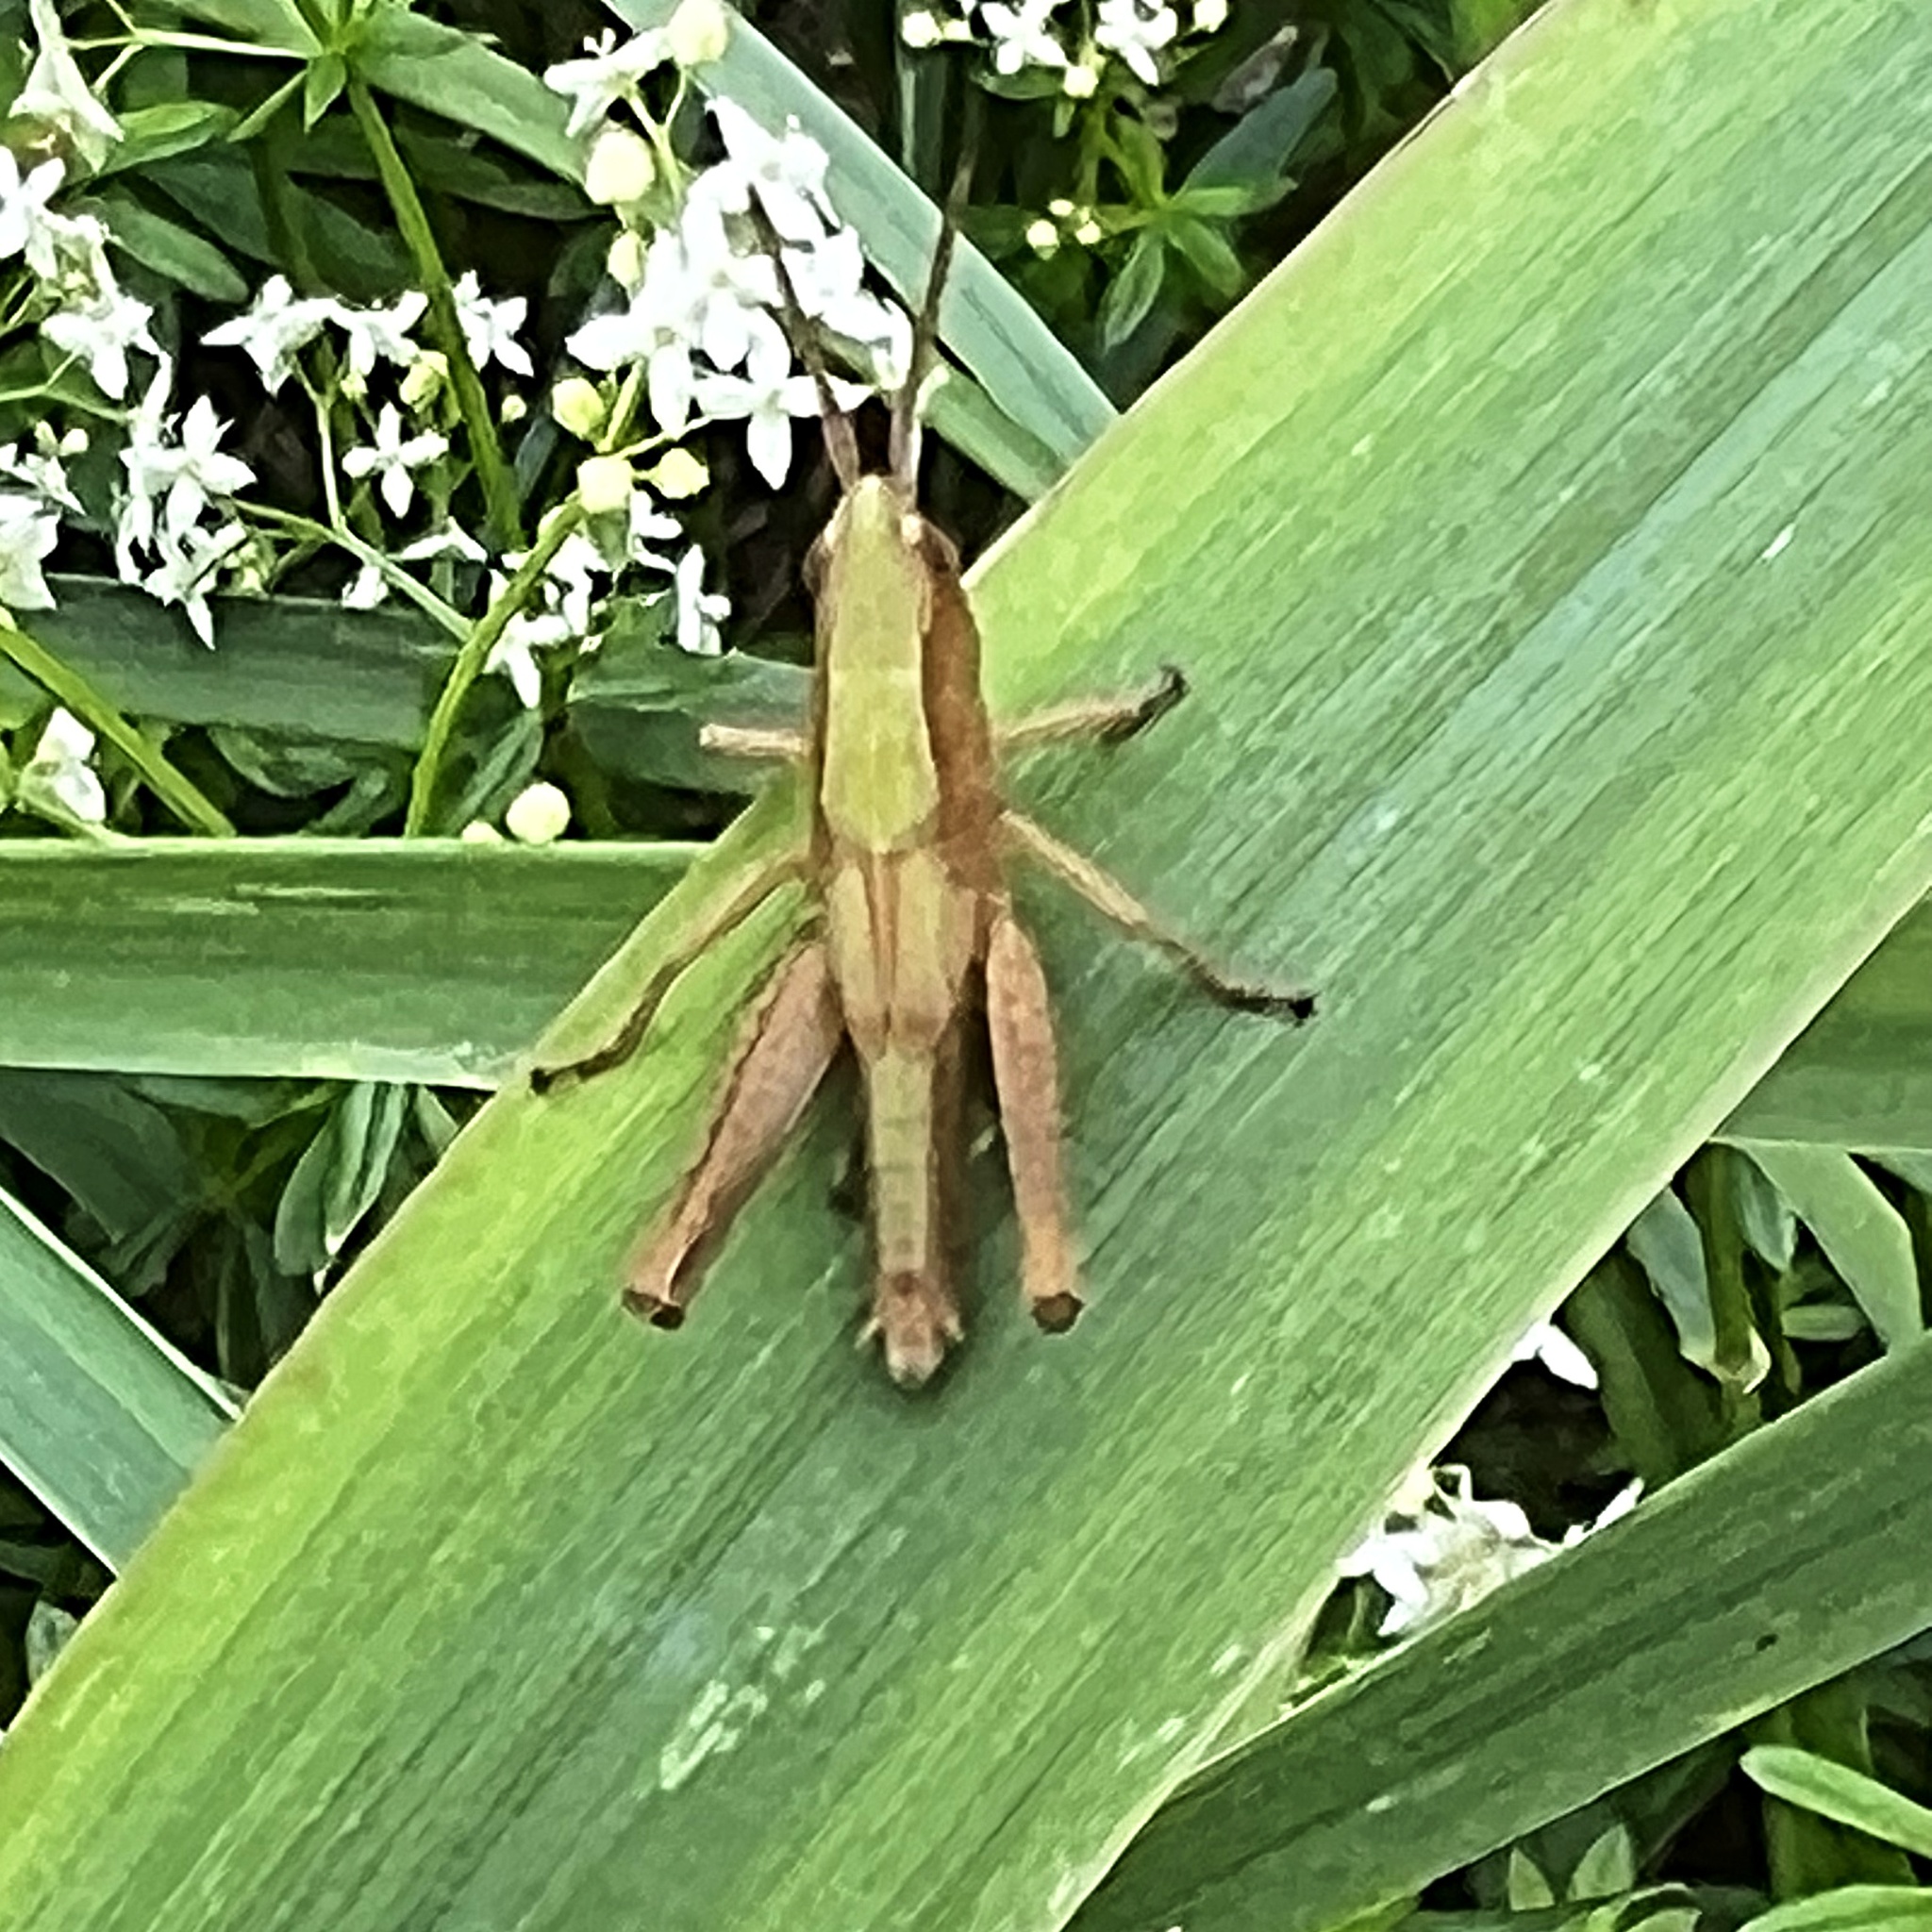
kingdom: Animalia
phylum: Arthropoda
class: Insecta
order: Orthoptera
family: Acrididae
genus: Chorthippus
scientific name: Chorthippus dorsatus
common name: Steppe grasshopper
